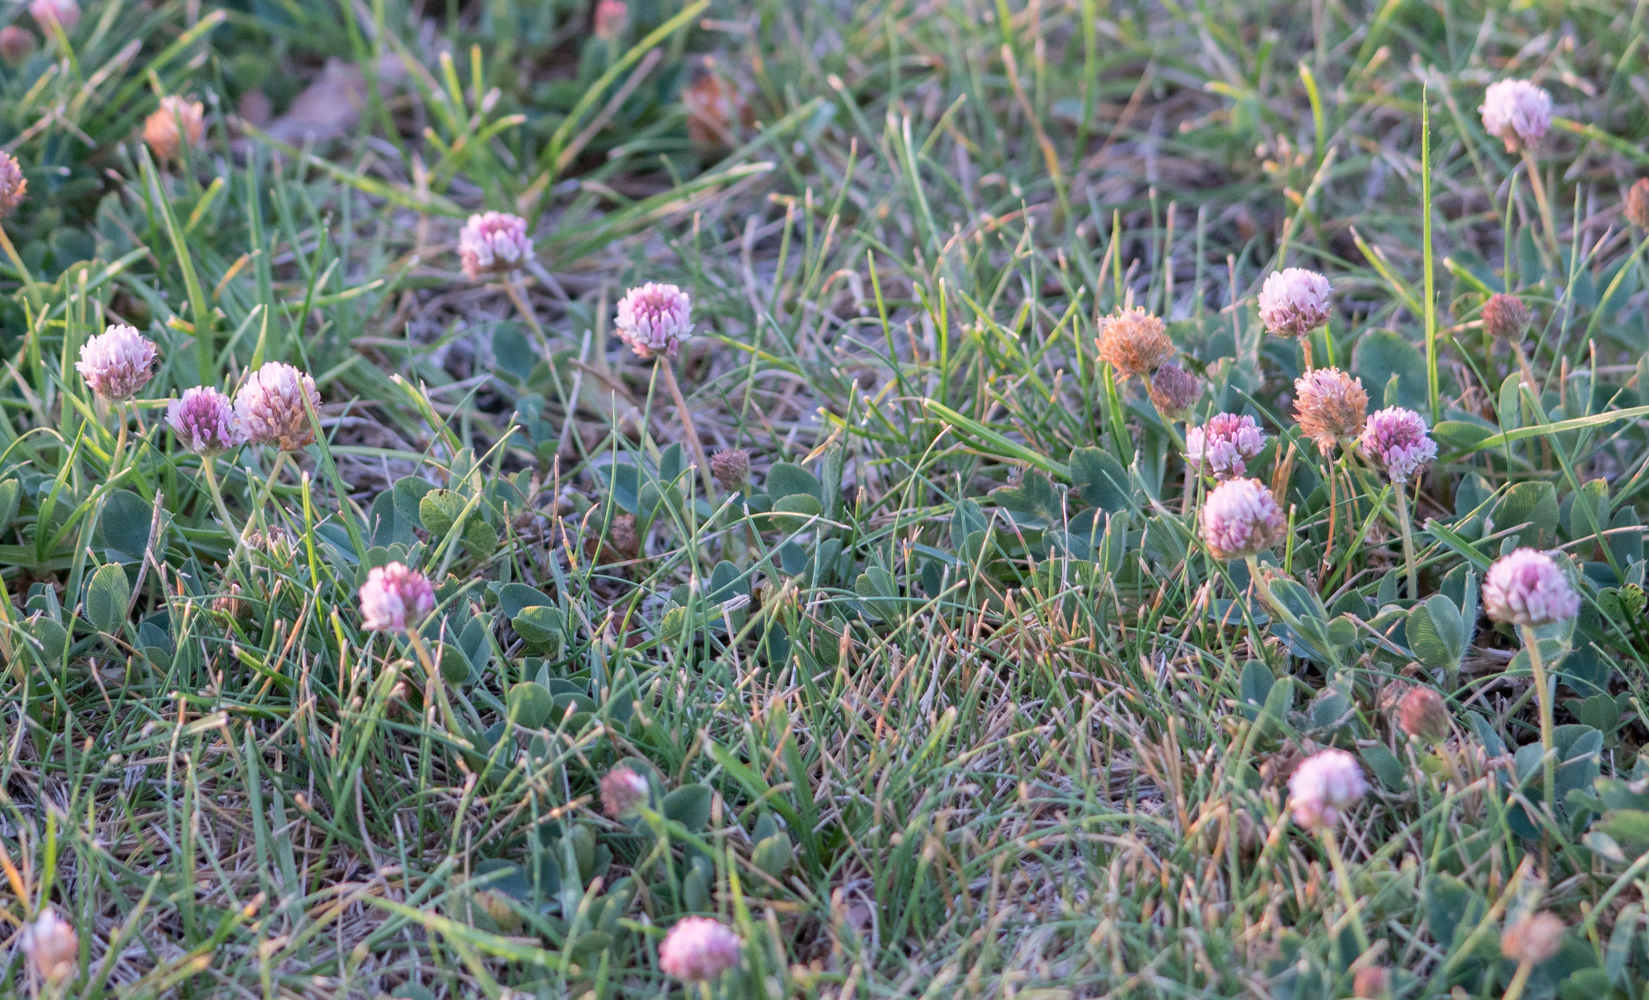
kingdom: Plantae
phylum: Tracheophyta
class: Magnoliopsida
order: Fabales
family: Fabaceae
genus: Trifolium
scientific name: Trifolium fragiferum
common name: Strawberry clover
